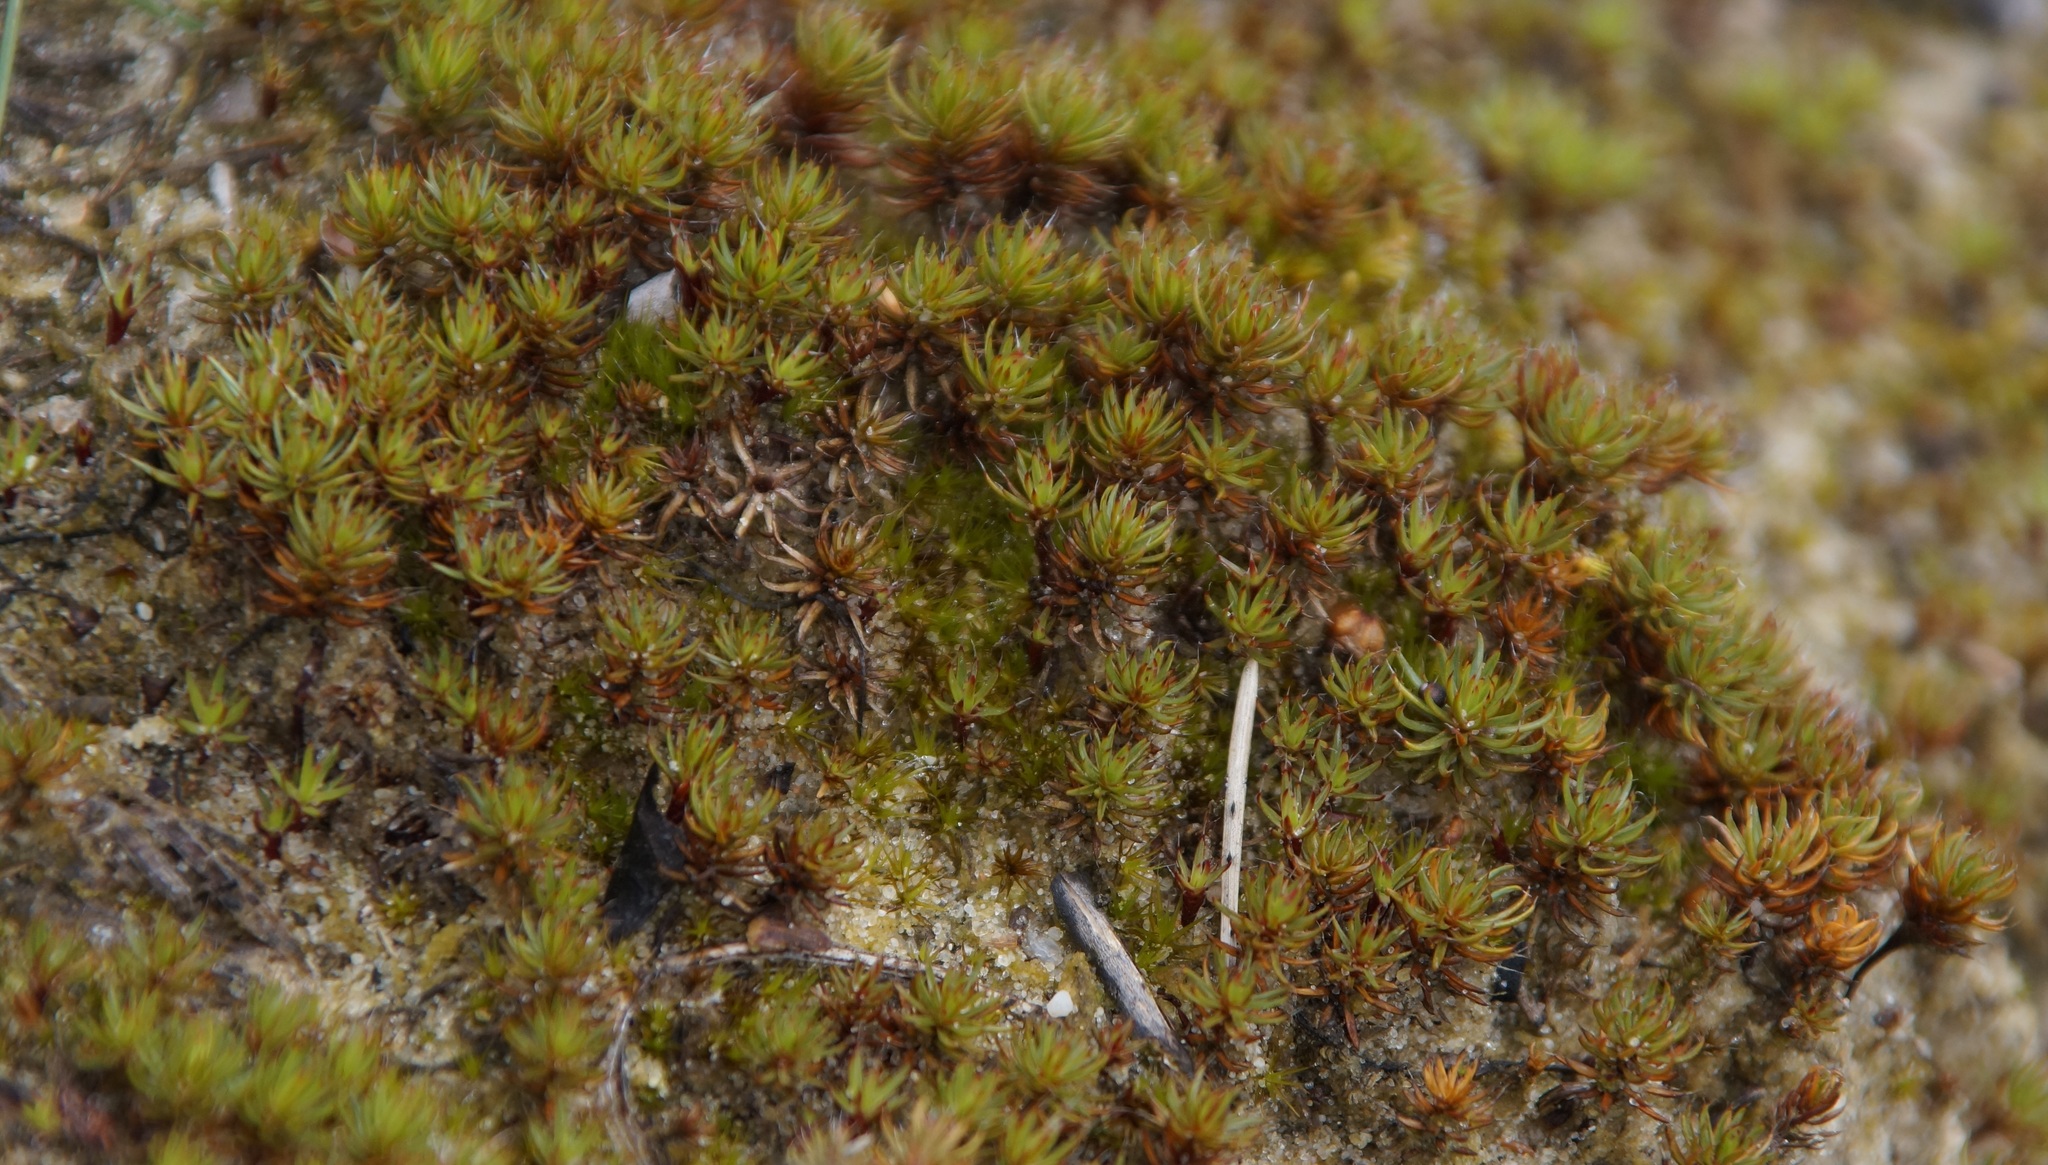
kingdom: Plantae
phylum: Bryophyta
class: Polytrichopsida
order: Polytrichales
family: Polytrichaceae
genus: Polytrichum
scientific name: Polytrichum piliferum
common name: Bristly haircap
